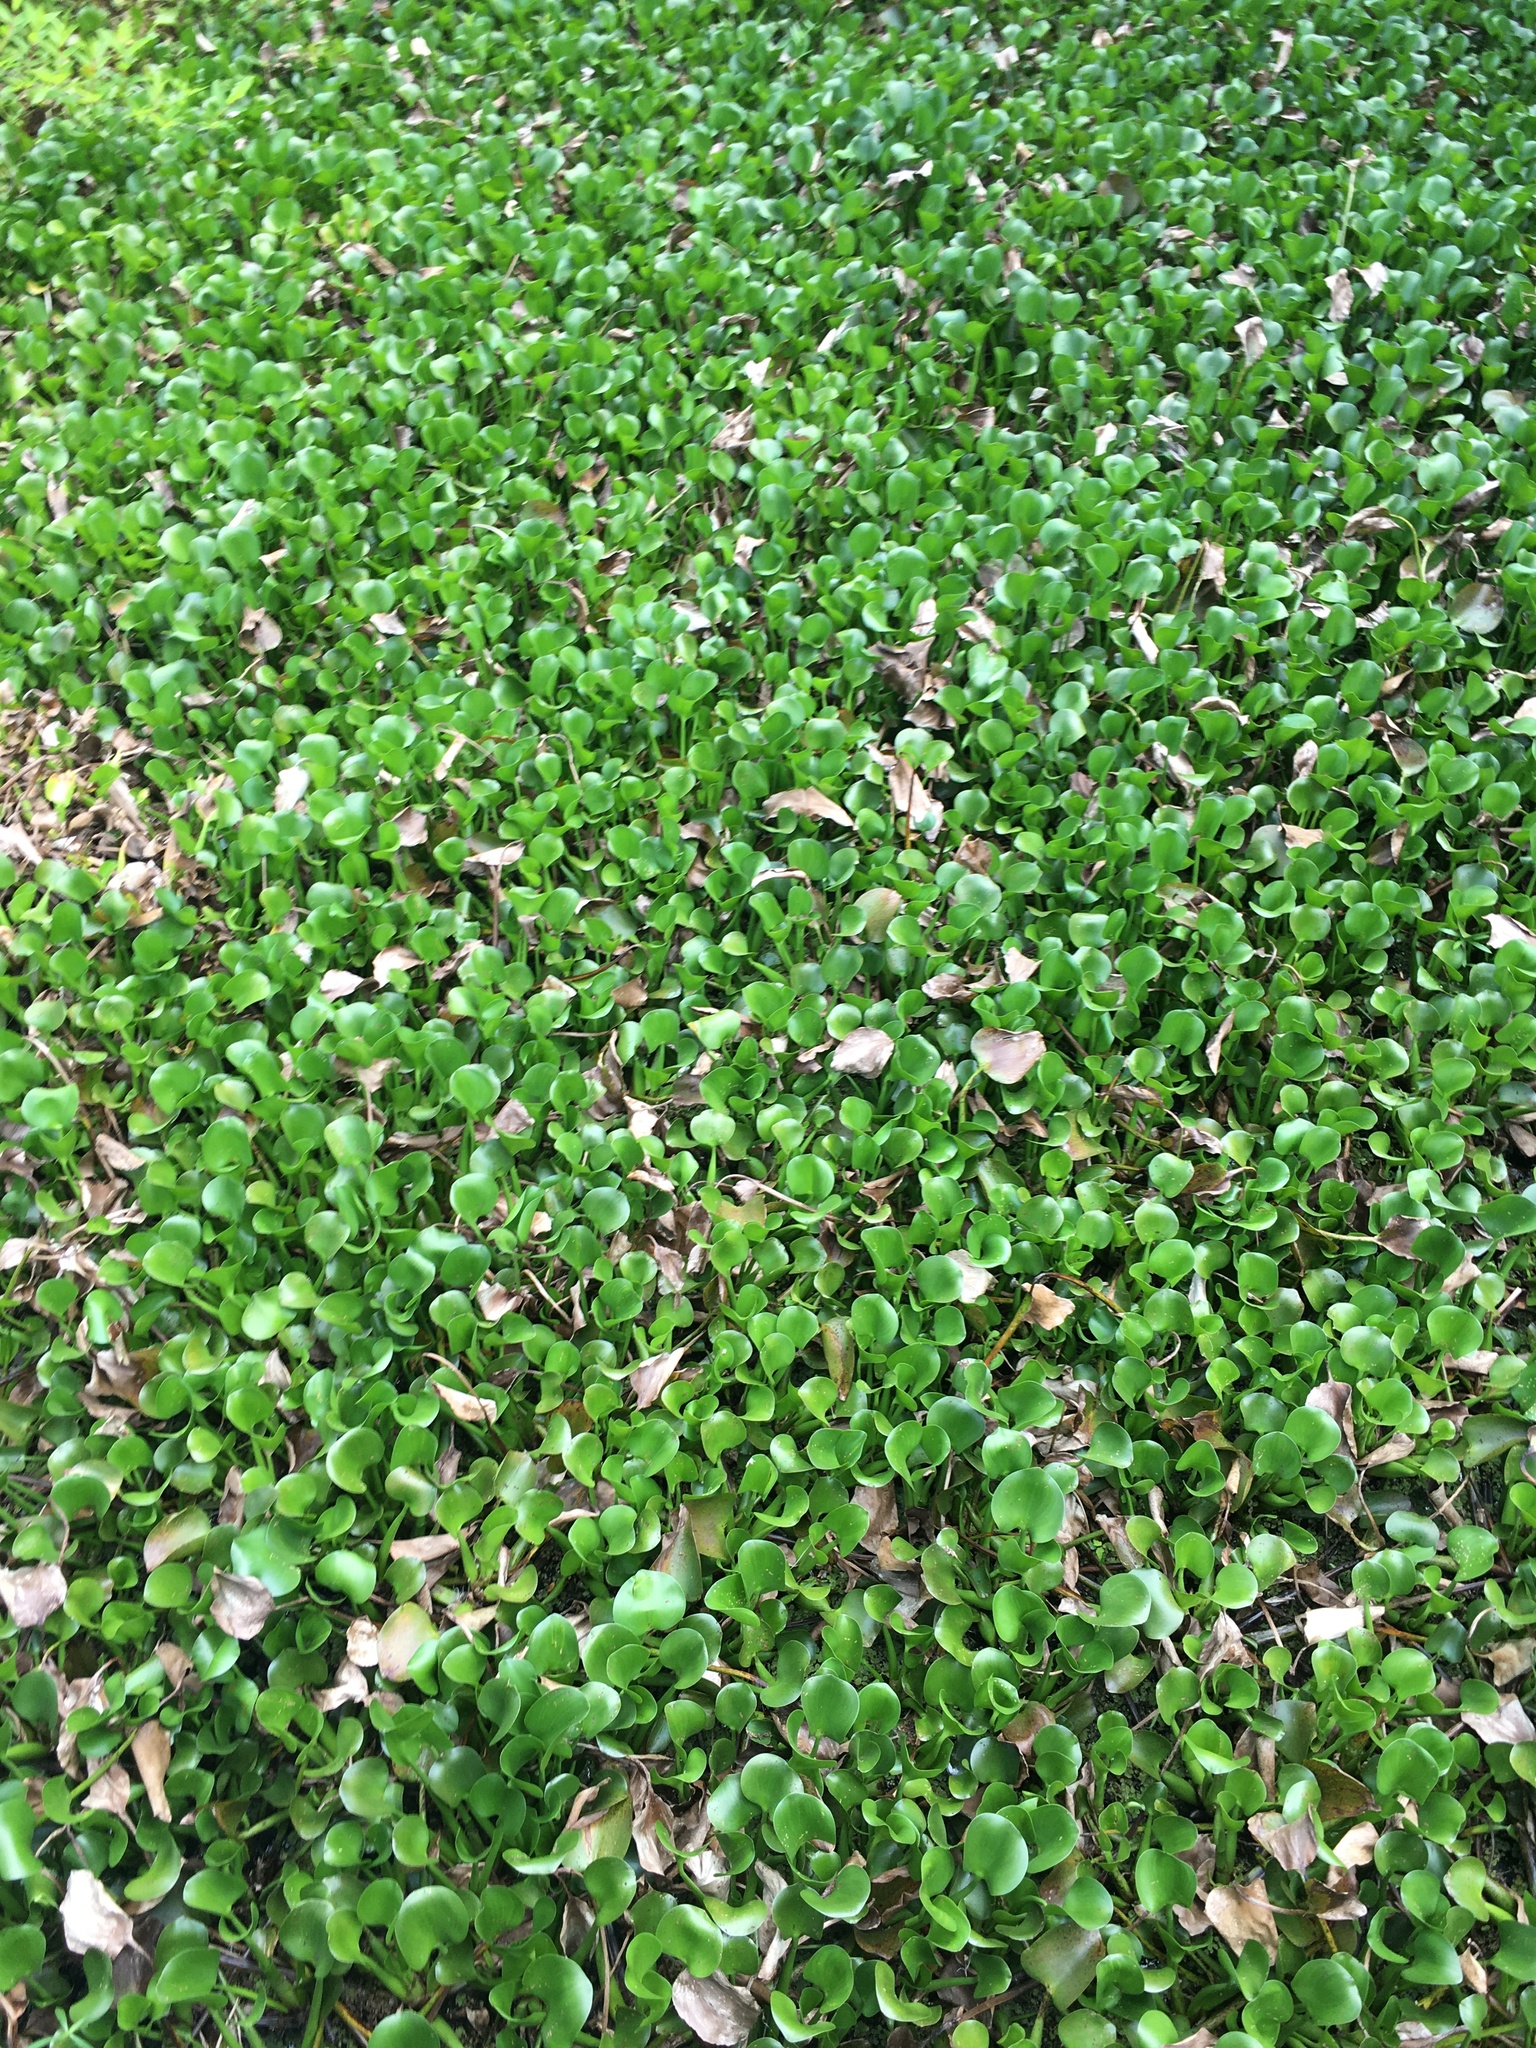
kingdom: Plantae
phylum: Tracheophyta
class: Liliopsida
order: Commelinales
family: Pontederiaceae
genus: Pontederia
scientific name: Pontederia crassipes
